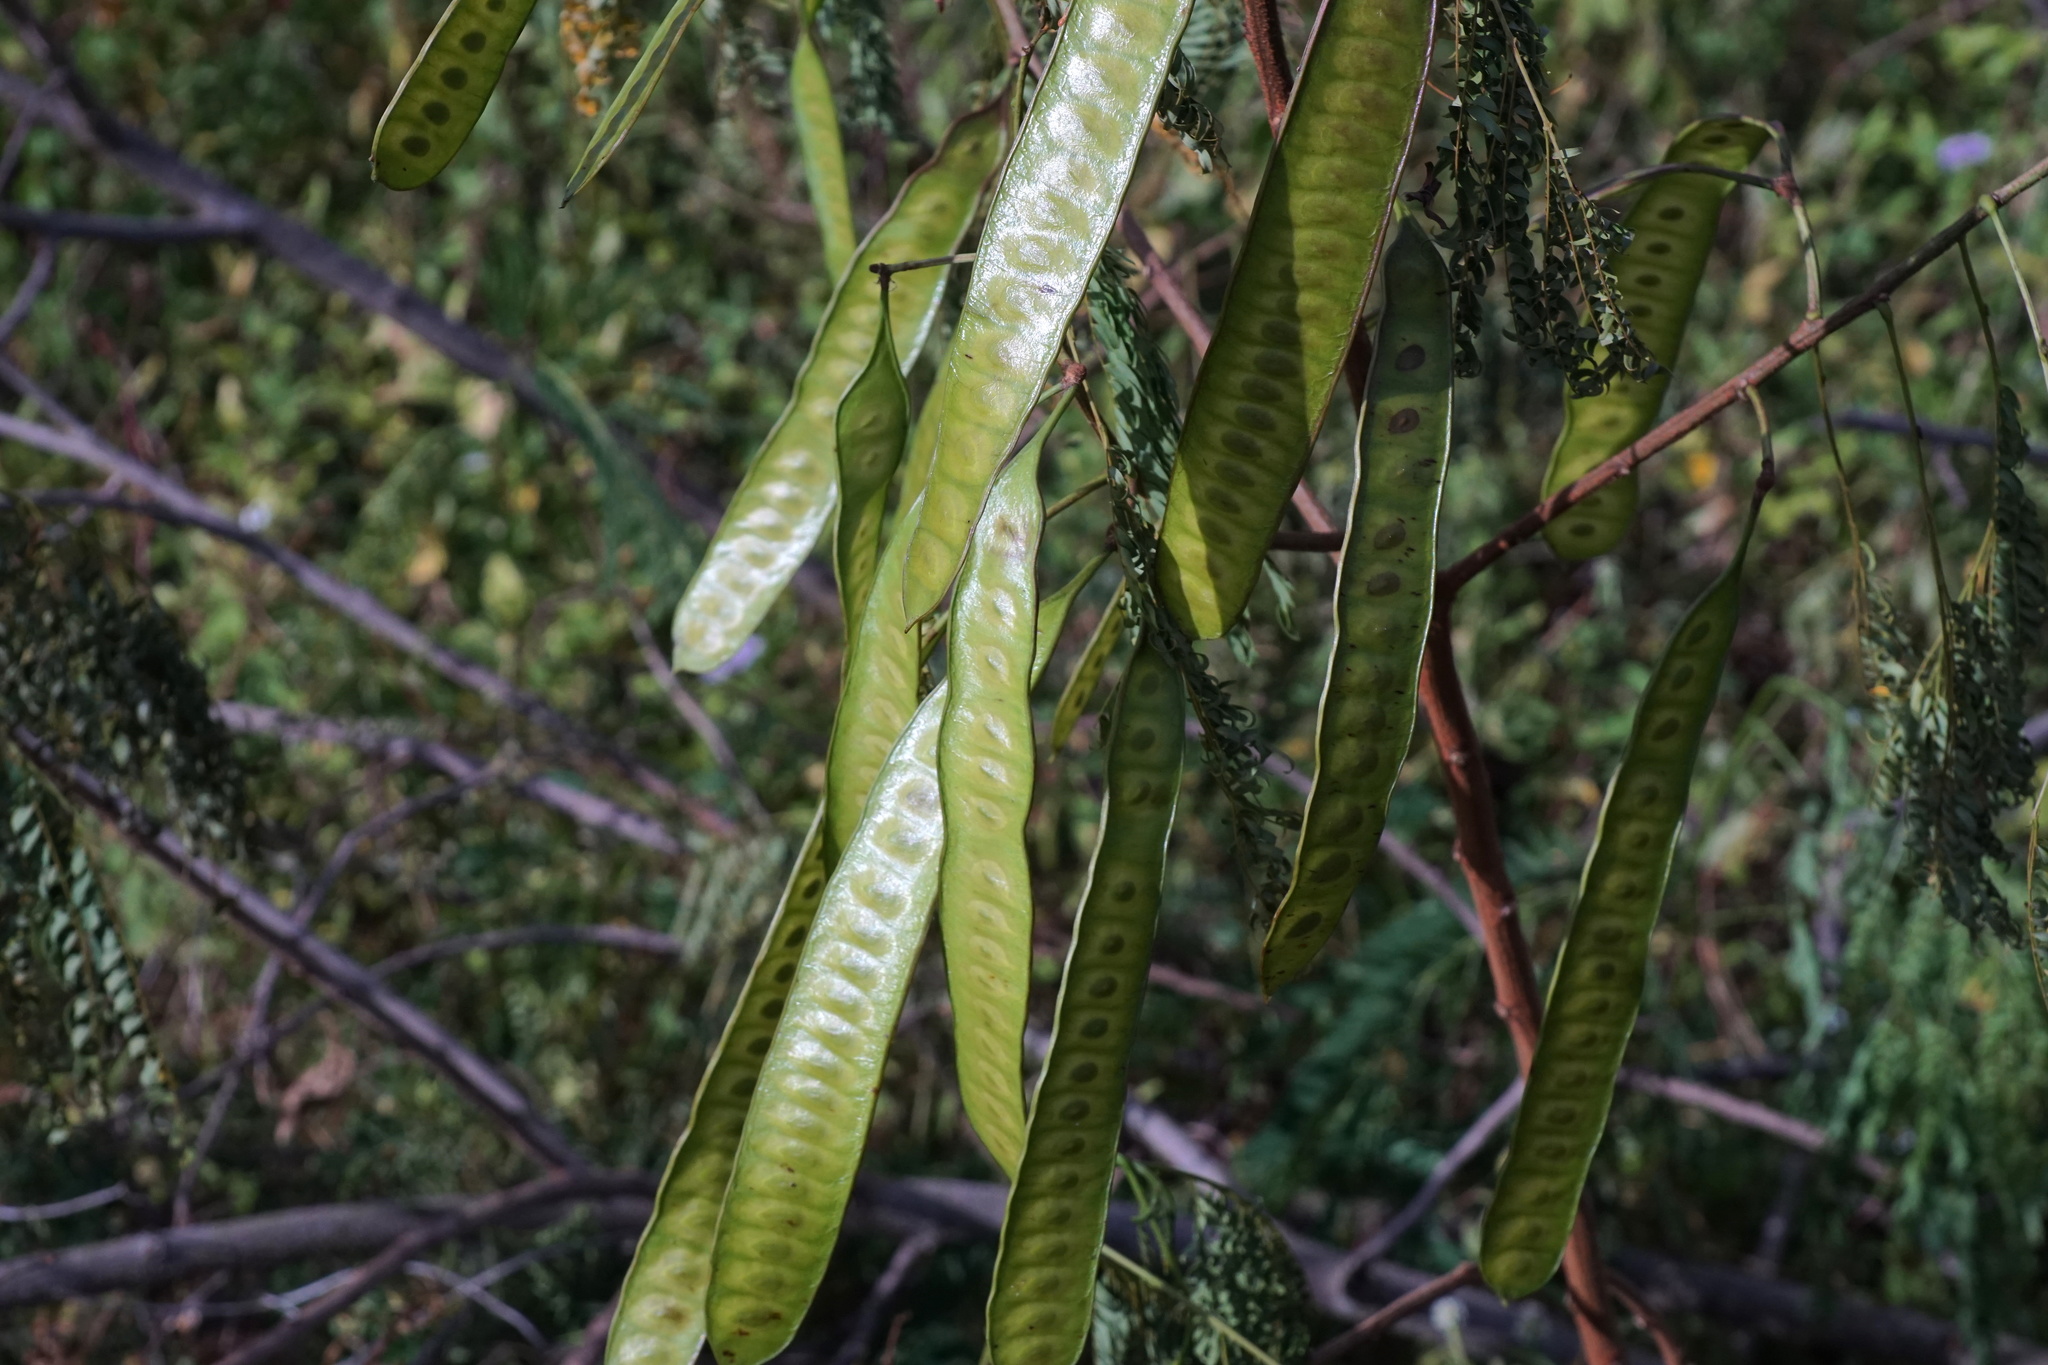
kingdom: Plantae
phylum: Tracheophyta
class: Magnoliopsida
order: Fabales
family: Fabaceae
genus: Leucaena
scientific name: Leucaena leucocephala
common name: White leadtree
